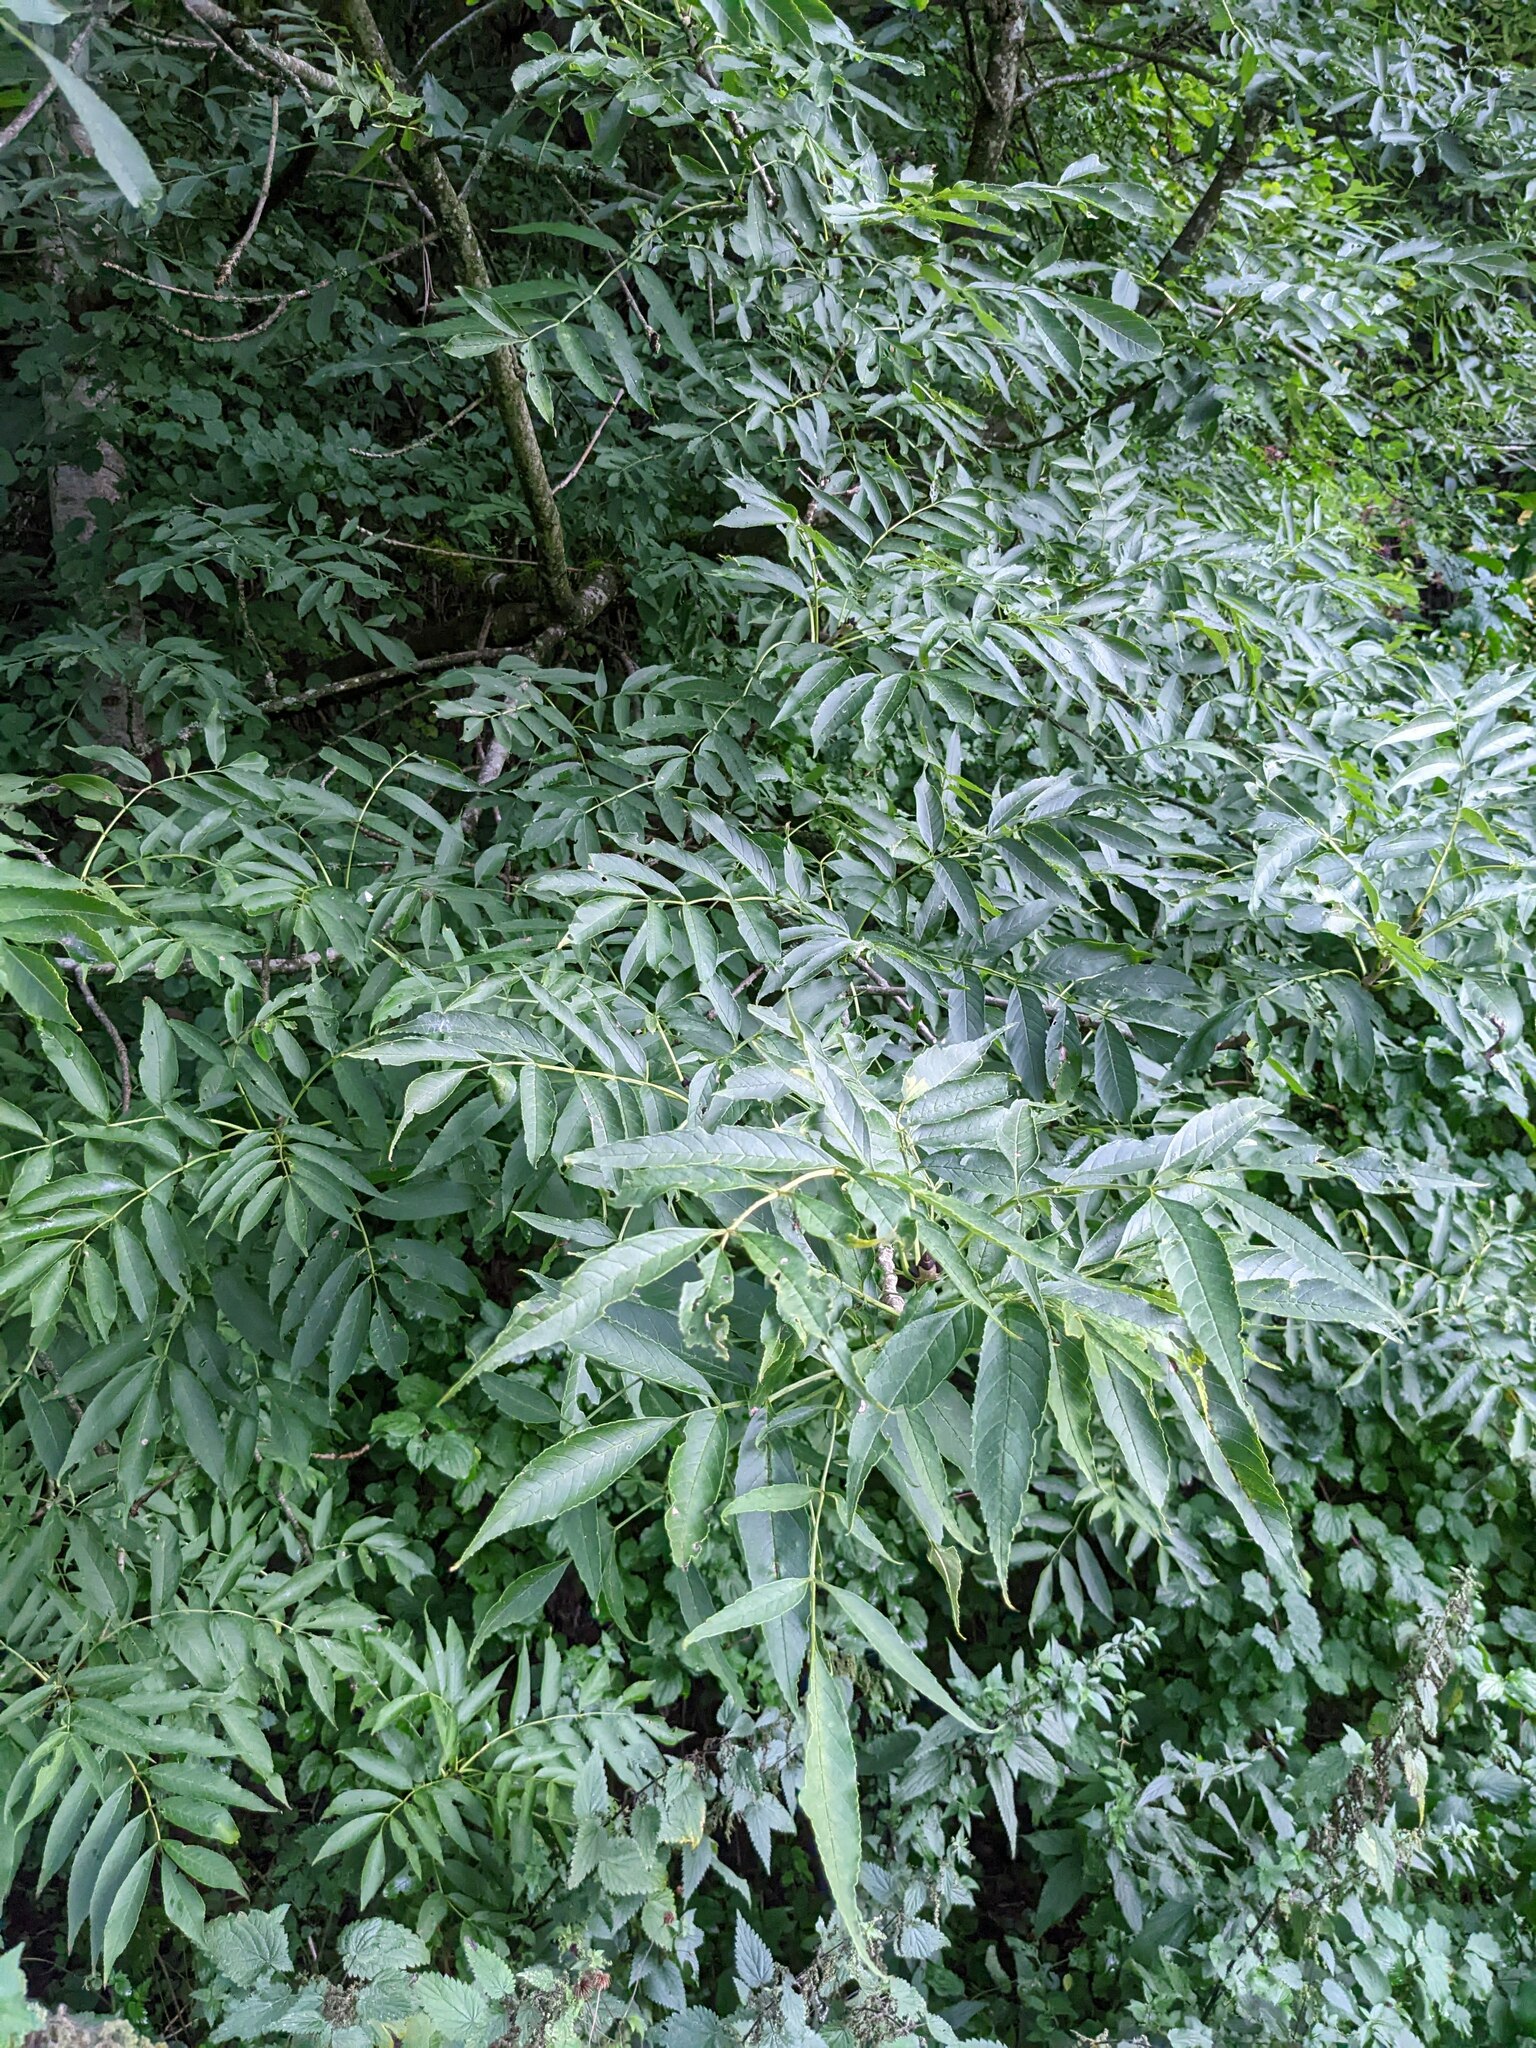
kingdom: Plantae
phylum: Tracheophyta
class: Magnoliopsida
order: Lamiales
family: Oleaceae
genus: Fraxinus
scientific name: Fraxinus excelsior
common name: European ash
